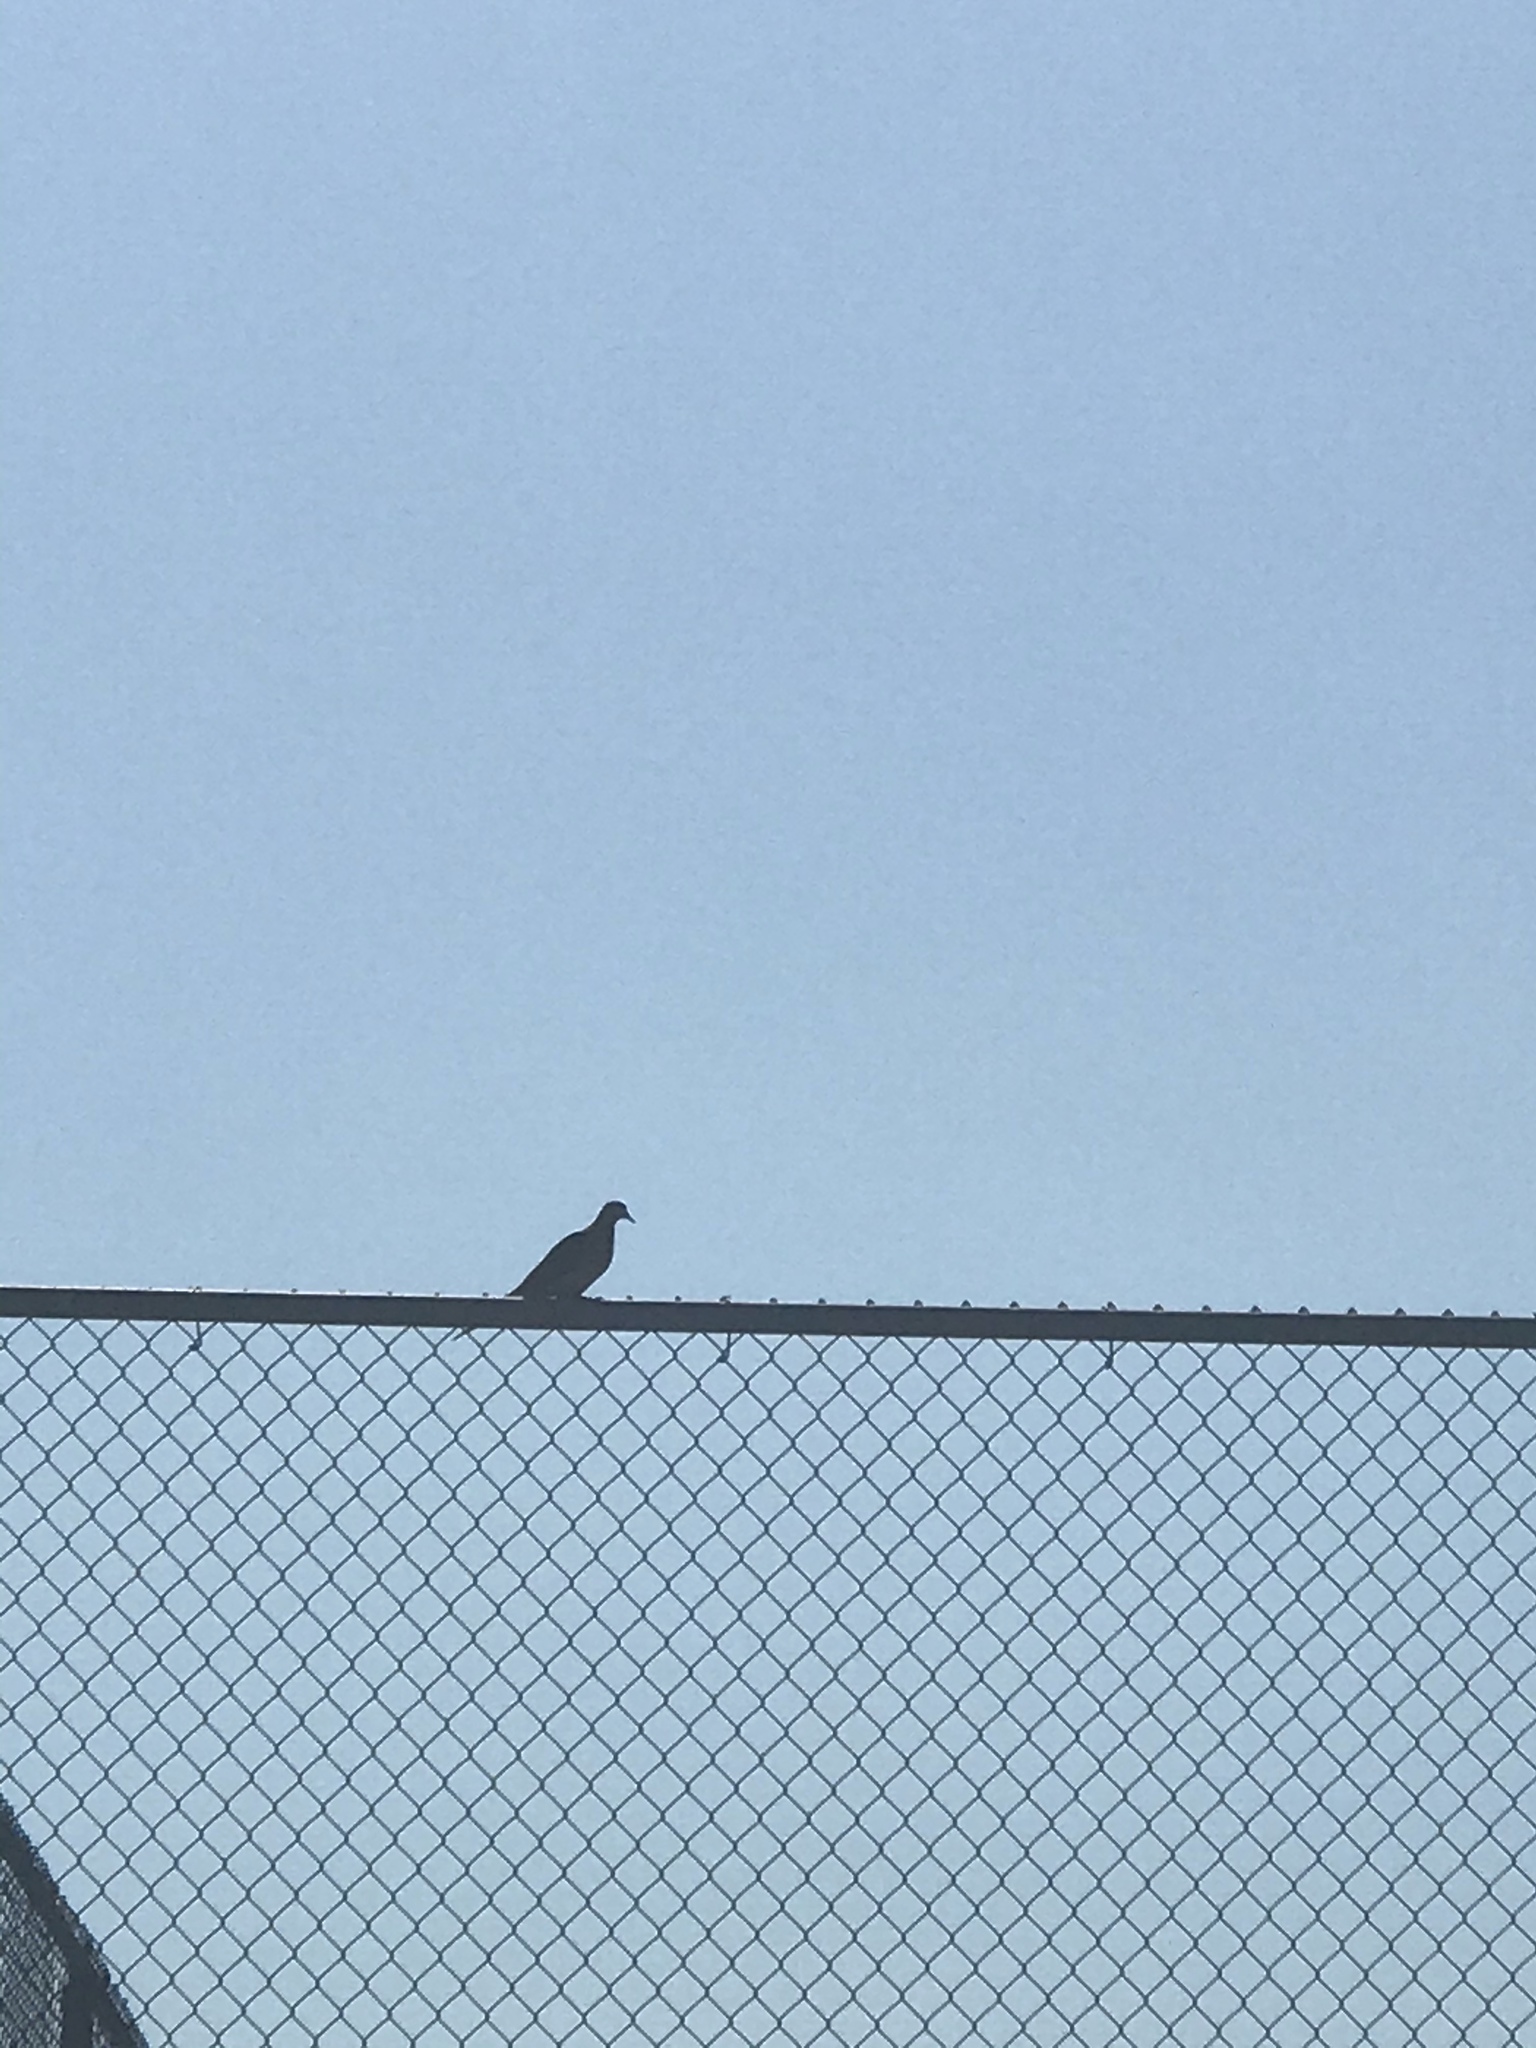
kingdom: Animalia
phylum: Chordata
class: Aves
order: Columbiformes
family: Columbidae
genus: Zenaida
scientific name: Zenaida macroura
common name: Mourning dove
